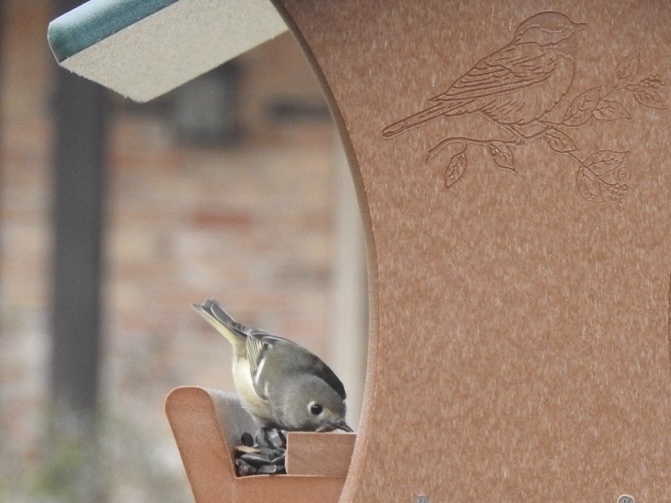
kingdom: Animalia
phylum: Chordata
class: Aves
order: Passeriformes
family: Regulidae
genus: Regulus
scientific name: Regulus calendula
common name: Ruby-crowned kinglet
